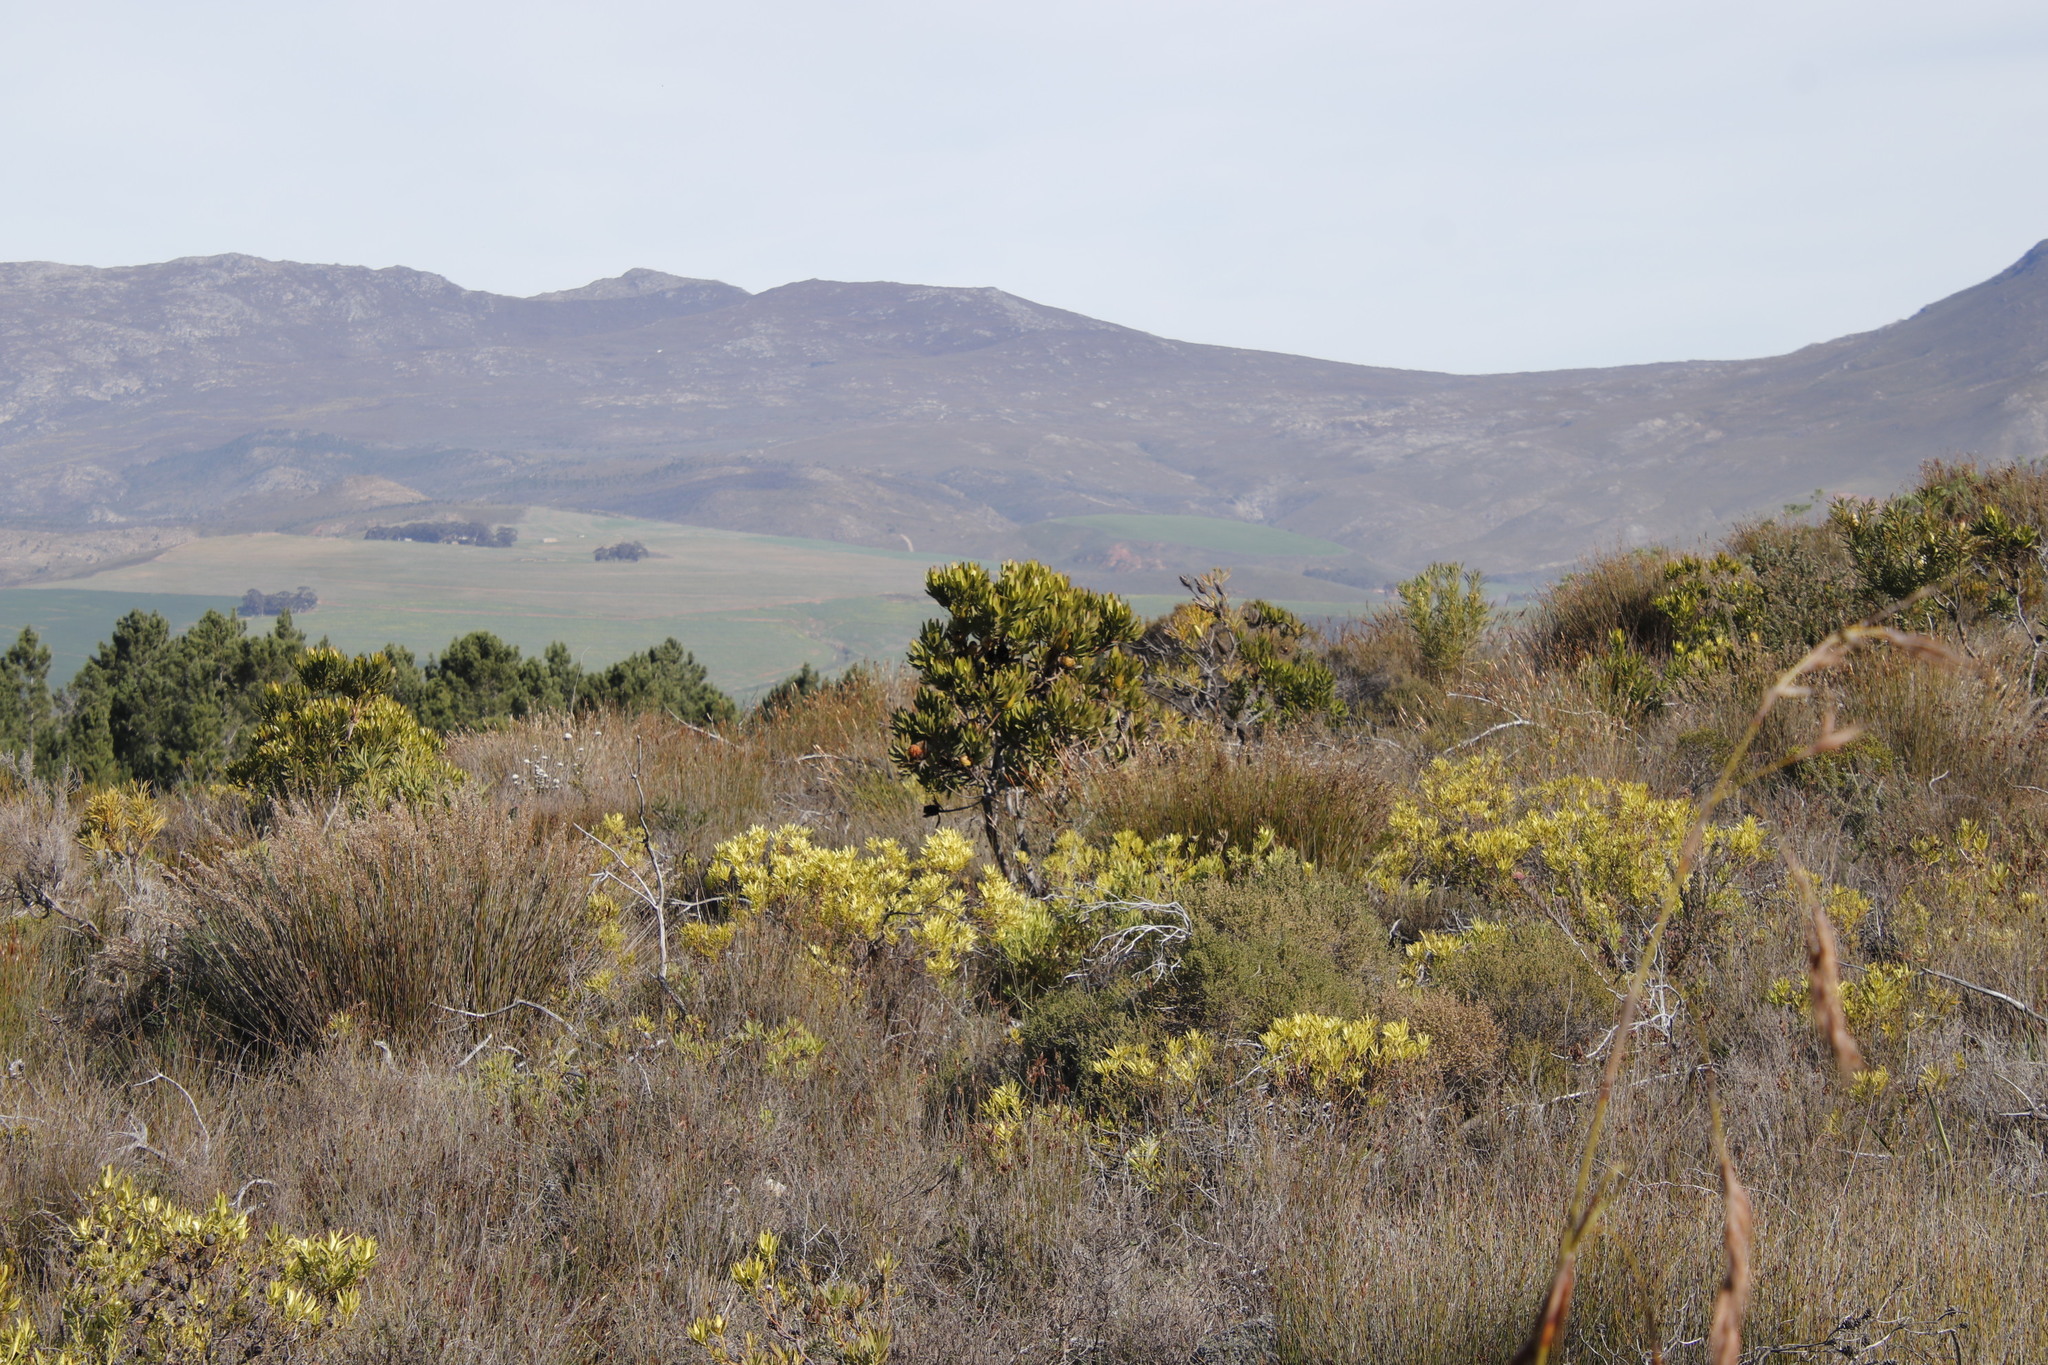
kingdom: Plantae
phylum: Tracheophyta
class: Magnoliopsida
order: Proteales
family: Proteaceae
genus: Leucadendron
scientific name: Leucadendron laureolum
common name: Golden sunshinebush
